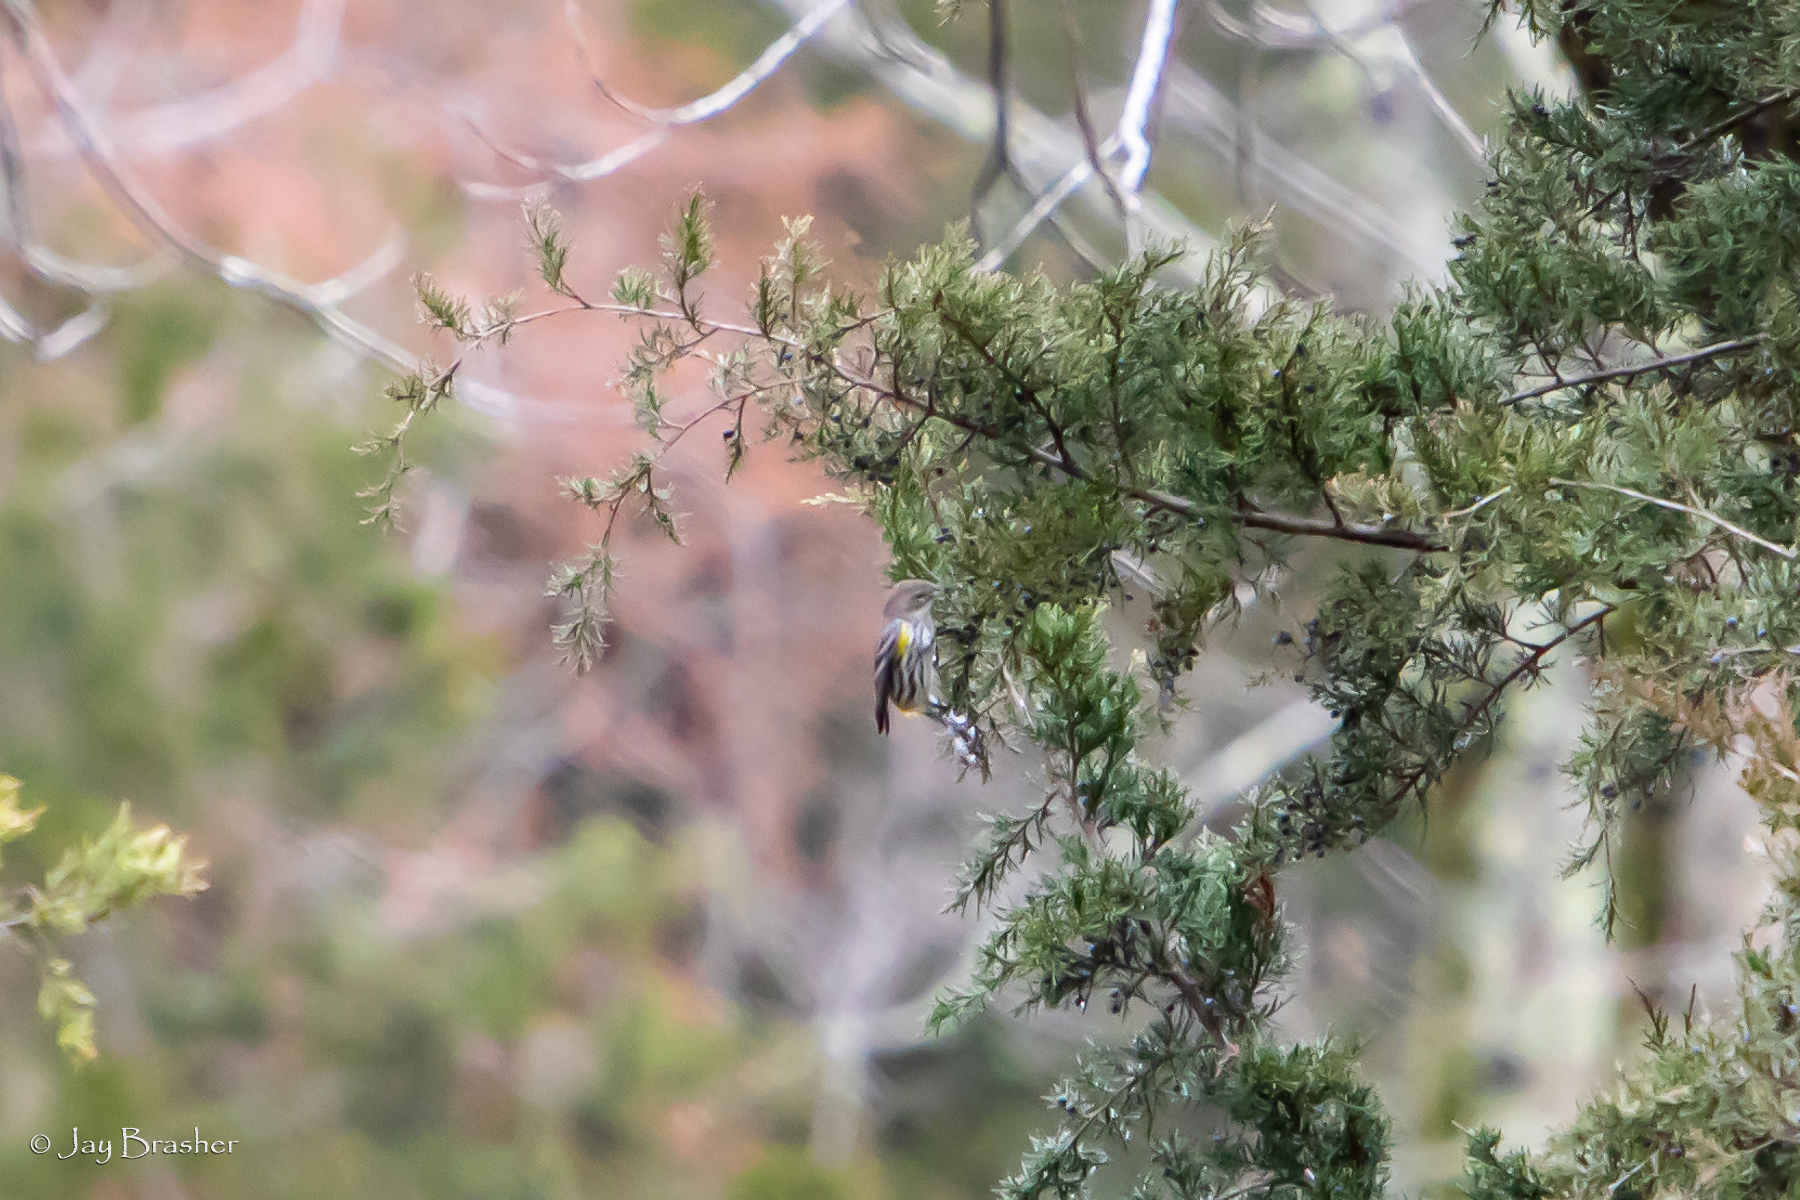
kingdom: Animalia
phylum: Chordata
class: Aves
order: Passeriformes
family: Parulidae
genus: Setophaga
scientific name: Setophaga coronata
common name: Myrtle warbler
